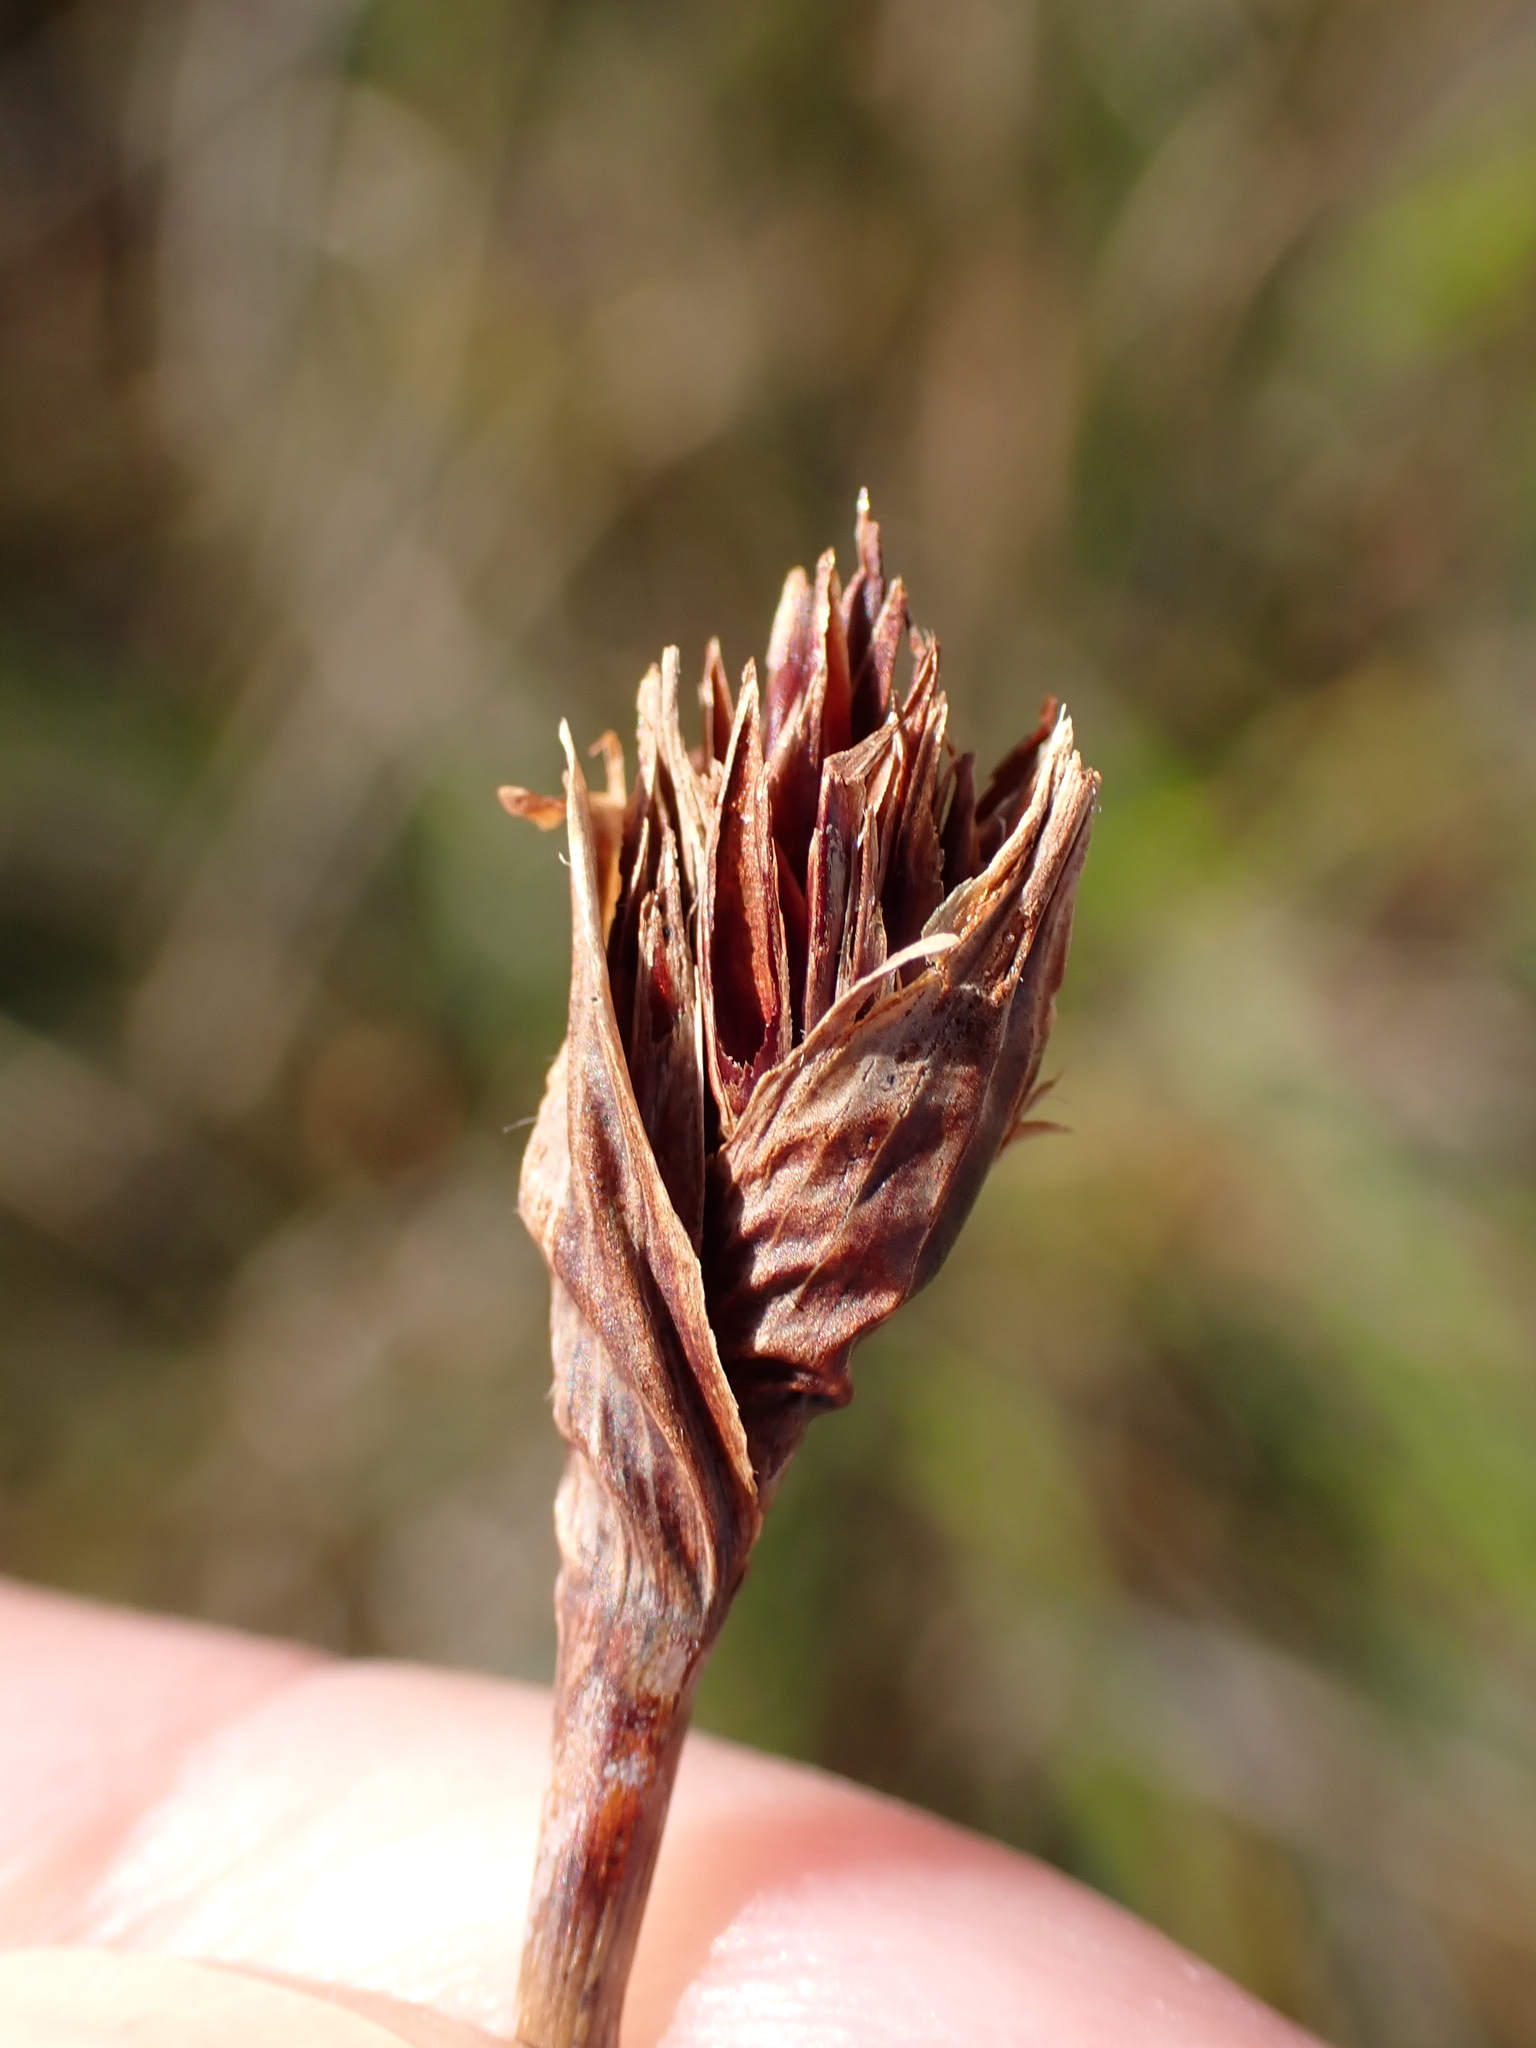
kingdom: Plantae
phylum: Tracheophyta
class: Liliopsida
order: Poales
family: Cyperaceae
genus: Schoenus
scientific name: Schoenus nigricans
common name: Black bog-rush
